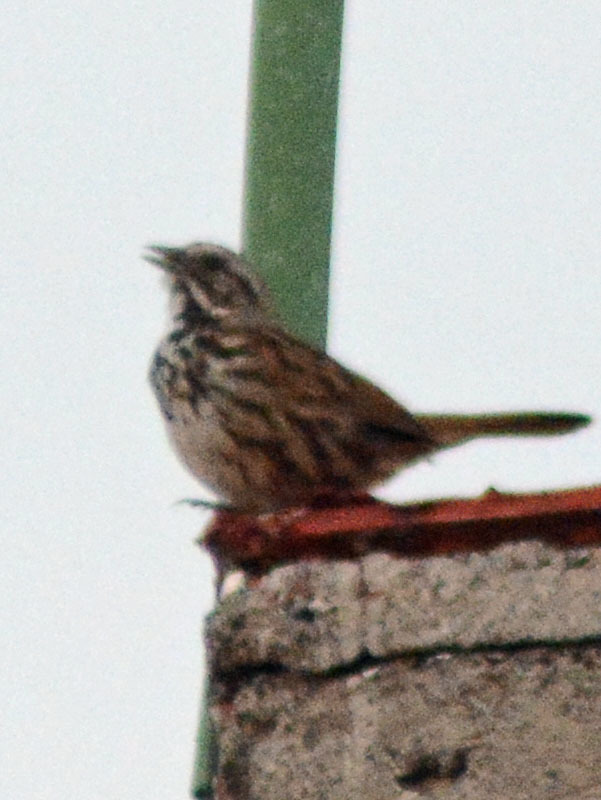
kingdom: Animalia
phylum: Chordata
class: Aves
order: Passeriformes
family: Passerellidae
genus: Melospiza
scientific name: Melospiza melodia
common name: Song sparrow
